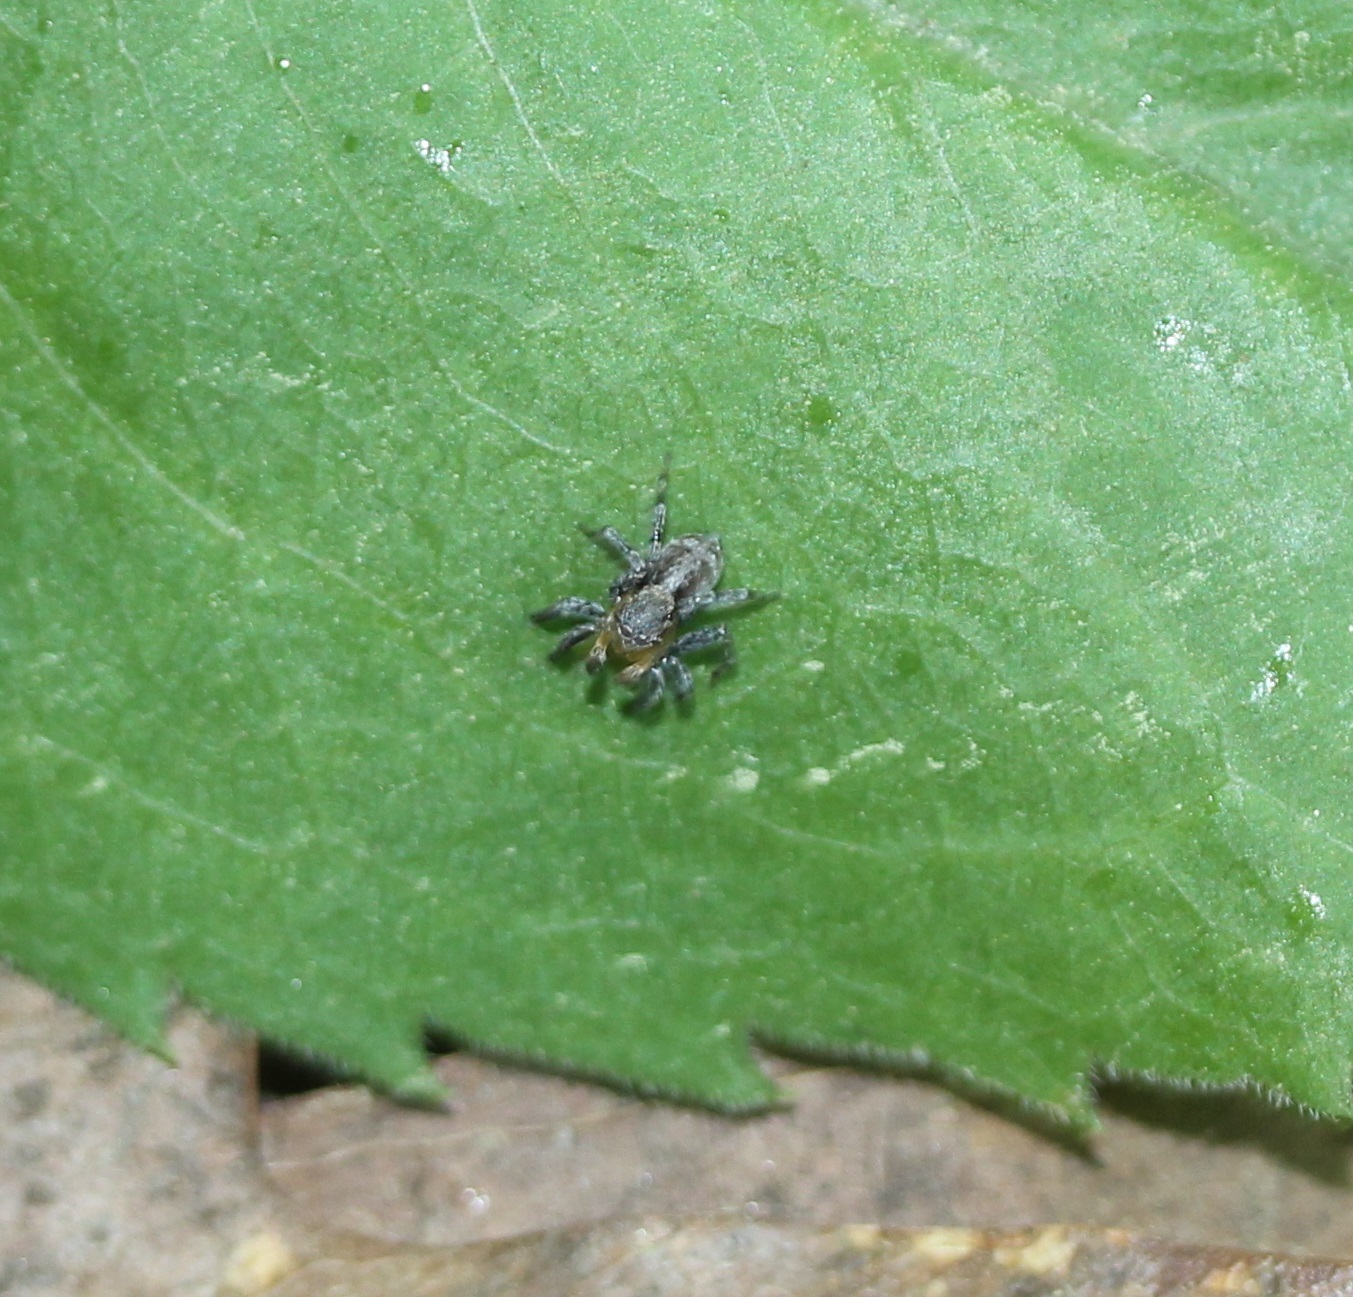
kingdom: Animalia
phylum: Arthropoda
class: Arachnida
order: Araneae
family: Salticidae
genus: Naphrys
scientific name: Naphrys pulex
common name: Flea jumping spider
